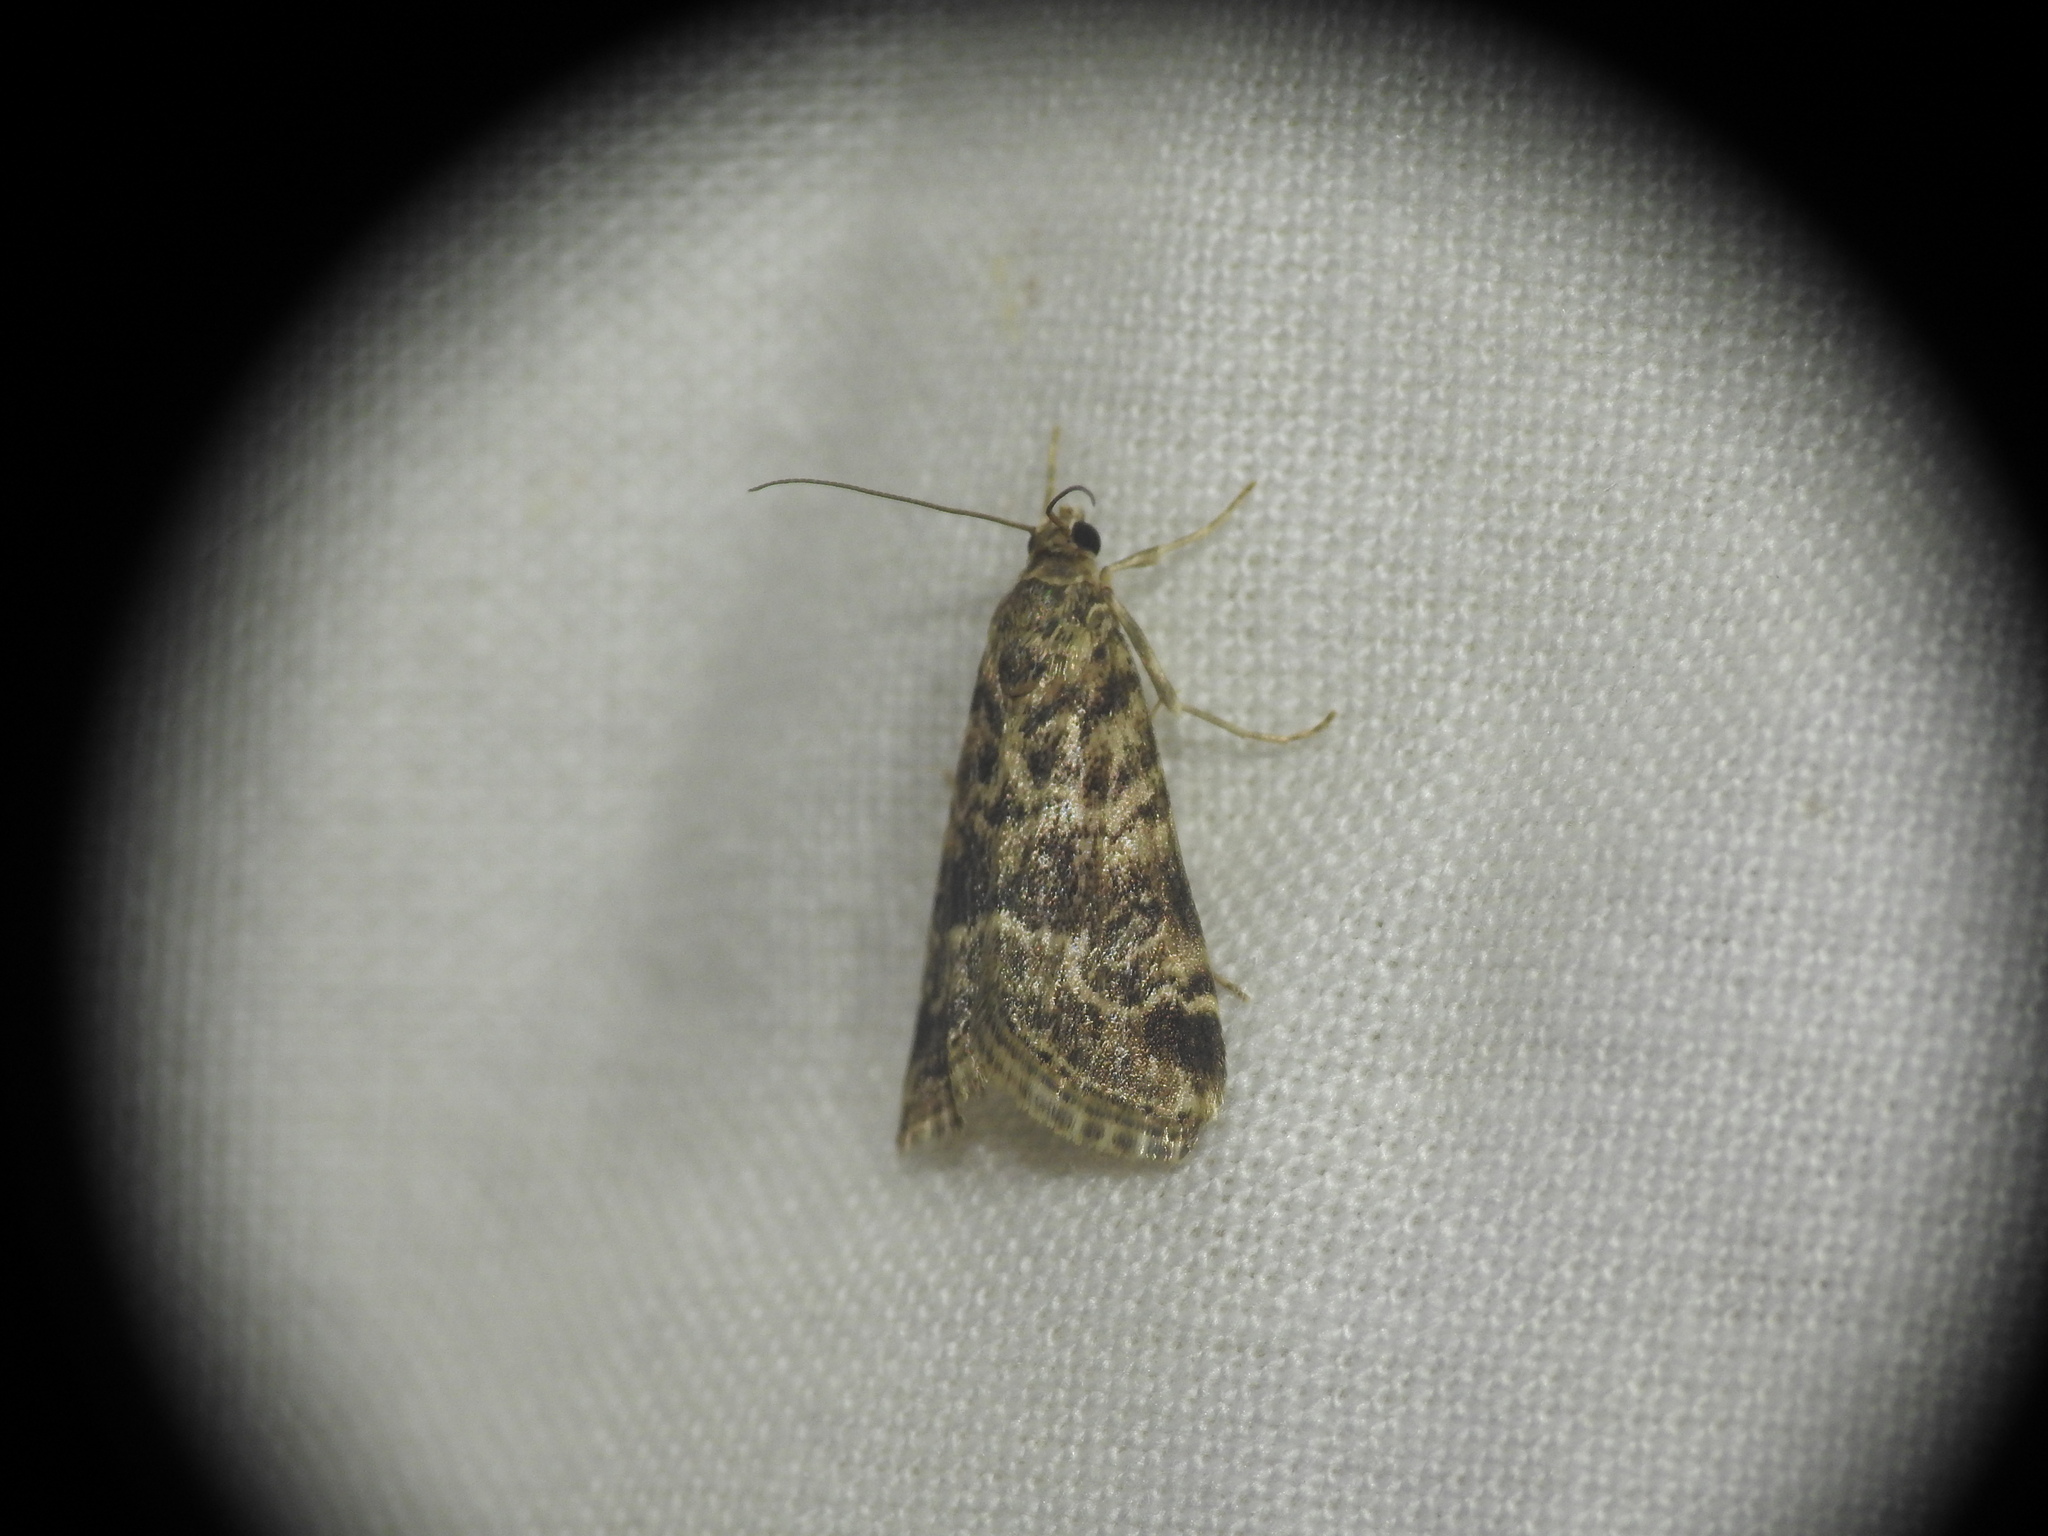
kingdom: Animalia
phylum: Arthropoda
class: Insecta
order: Lepidoptera
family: Crambidae
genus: Hellula
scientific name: Hellula undalis
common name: Cabbage webworm
